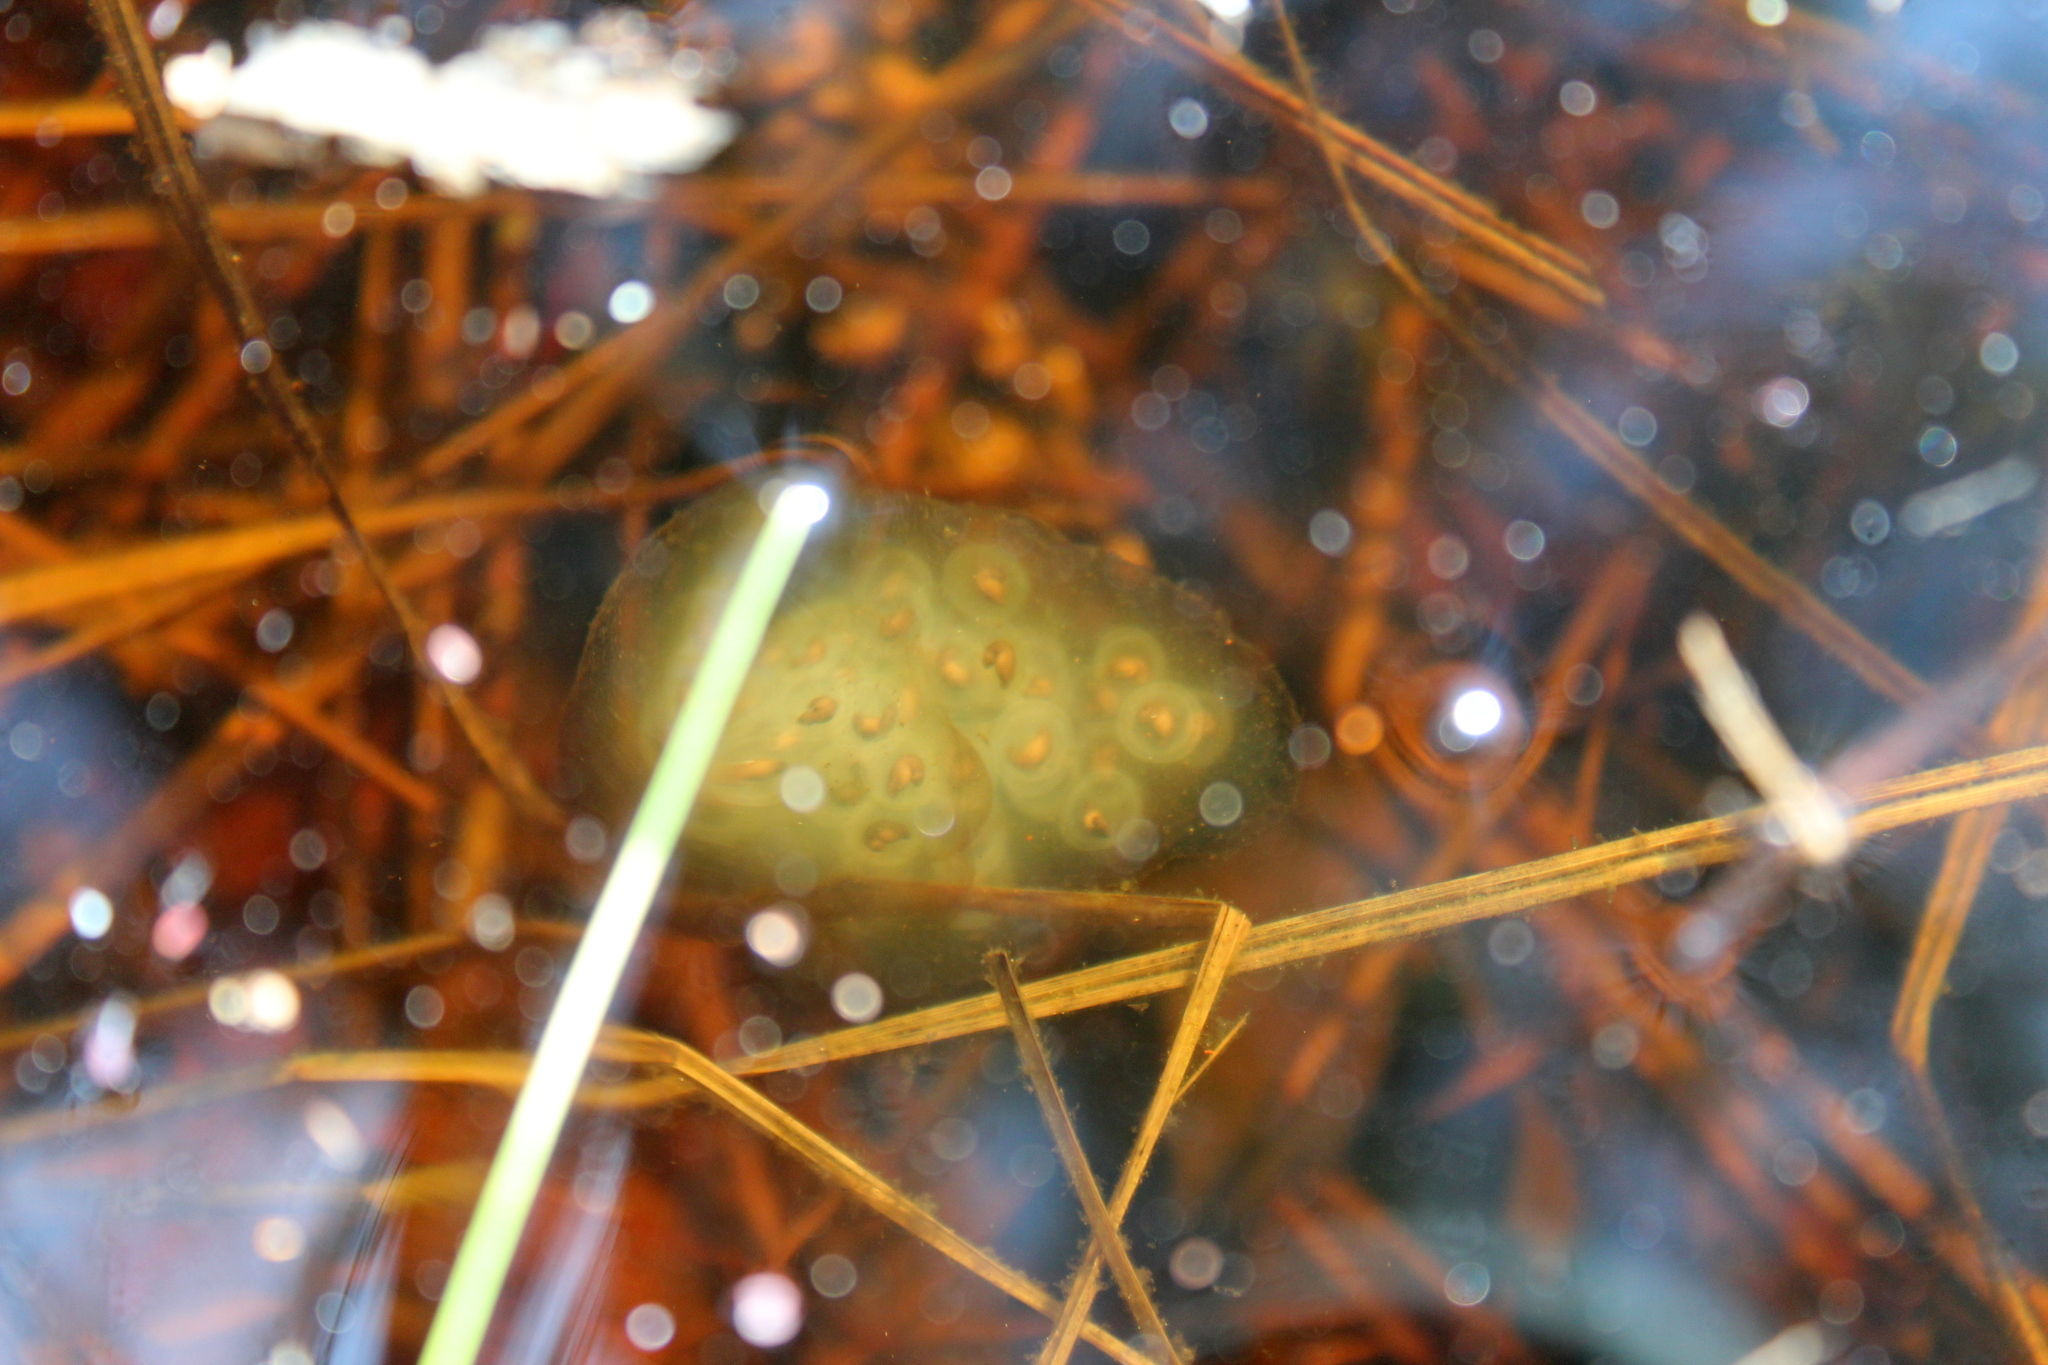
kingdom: Animalia
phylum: Chordata
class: Amphibia
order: Caudata
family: Ambystomatidae
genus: Ambystoma
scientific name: Ambystoma maculatum
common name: Spotted salamander
